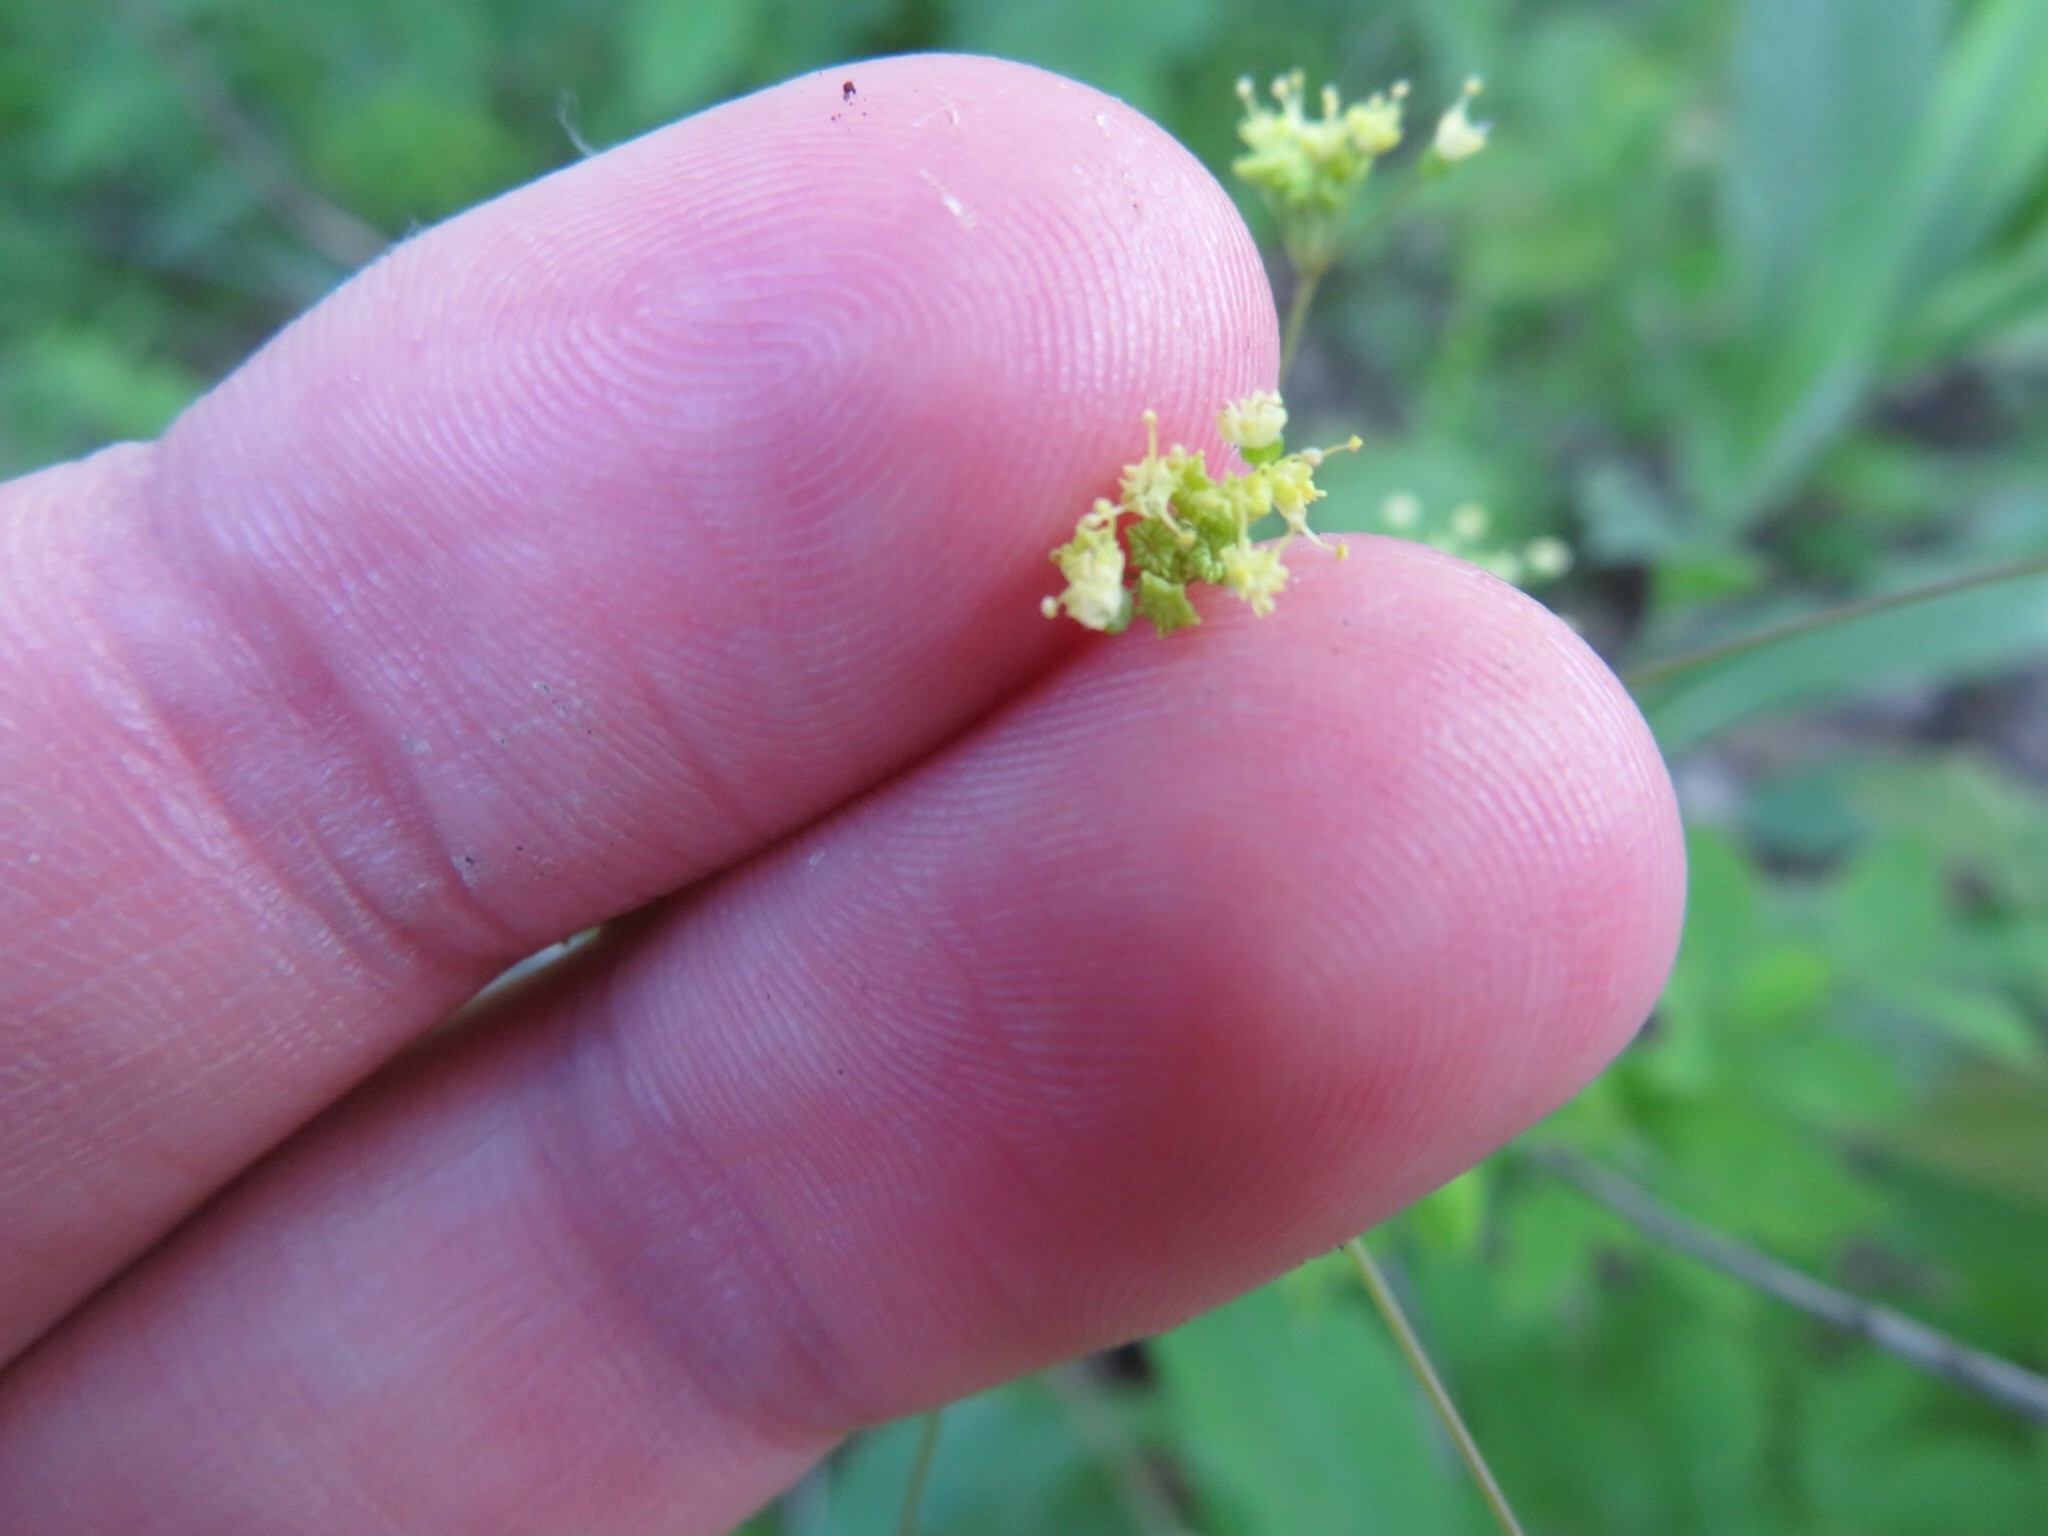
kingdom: Plantae
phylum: Tracheophyta
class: Magnoliopsida
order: Apiales
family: Apiaceae
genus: Taenidia
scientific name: Taenidia integerrima
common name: Golden alexander
